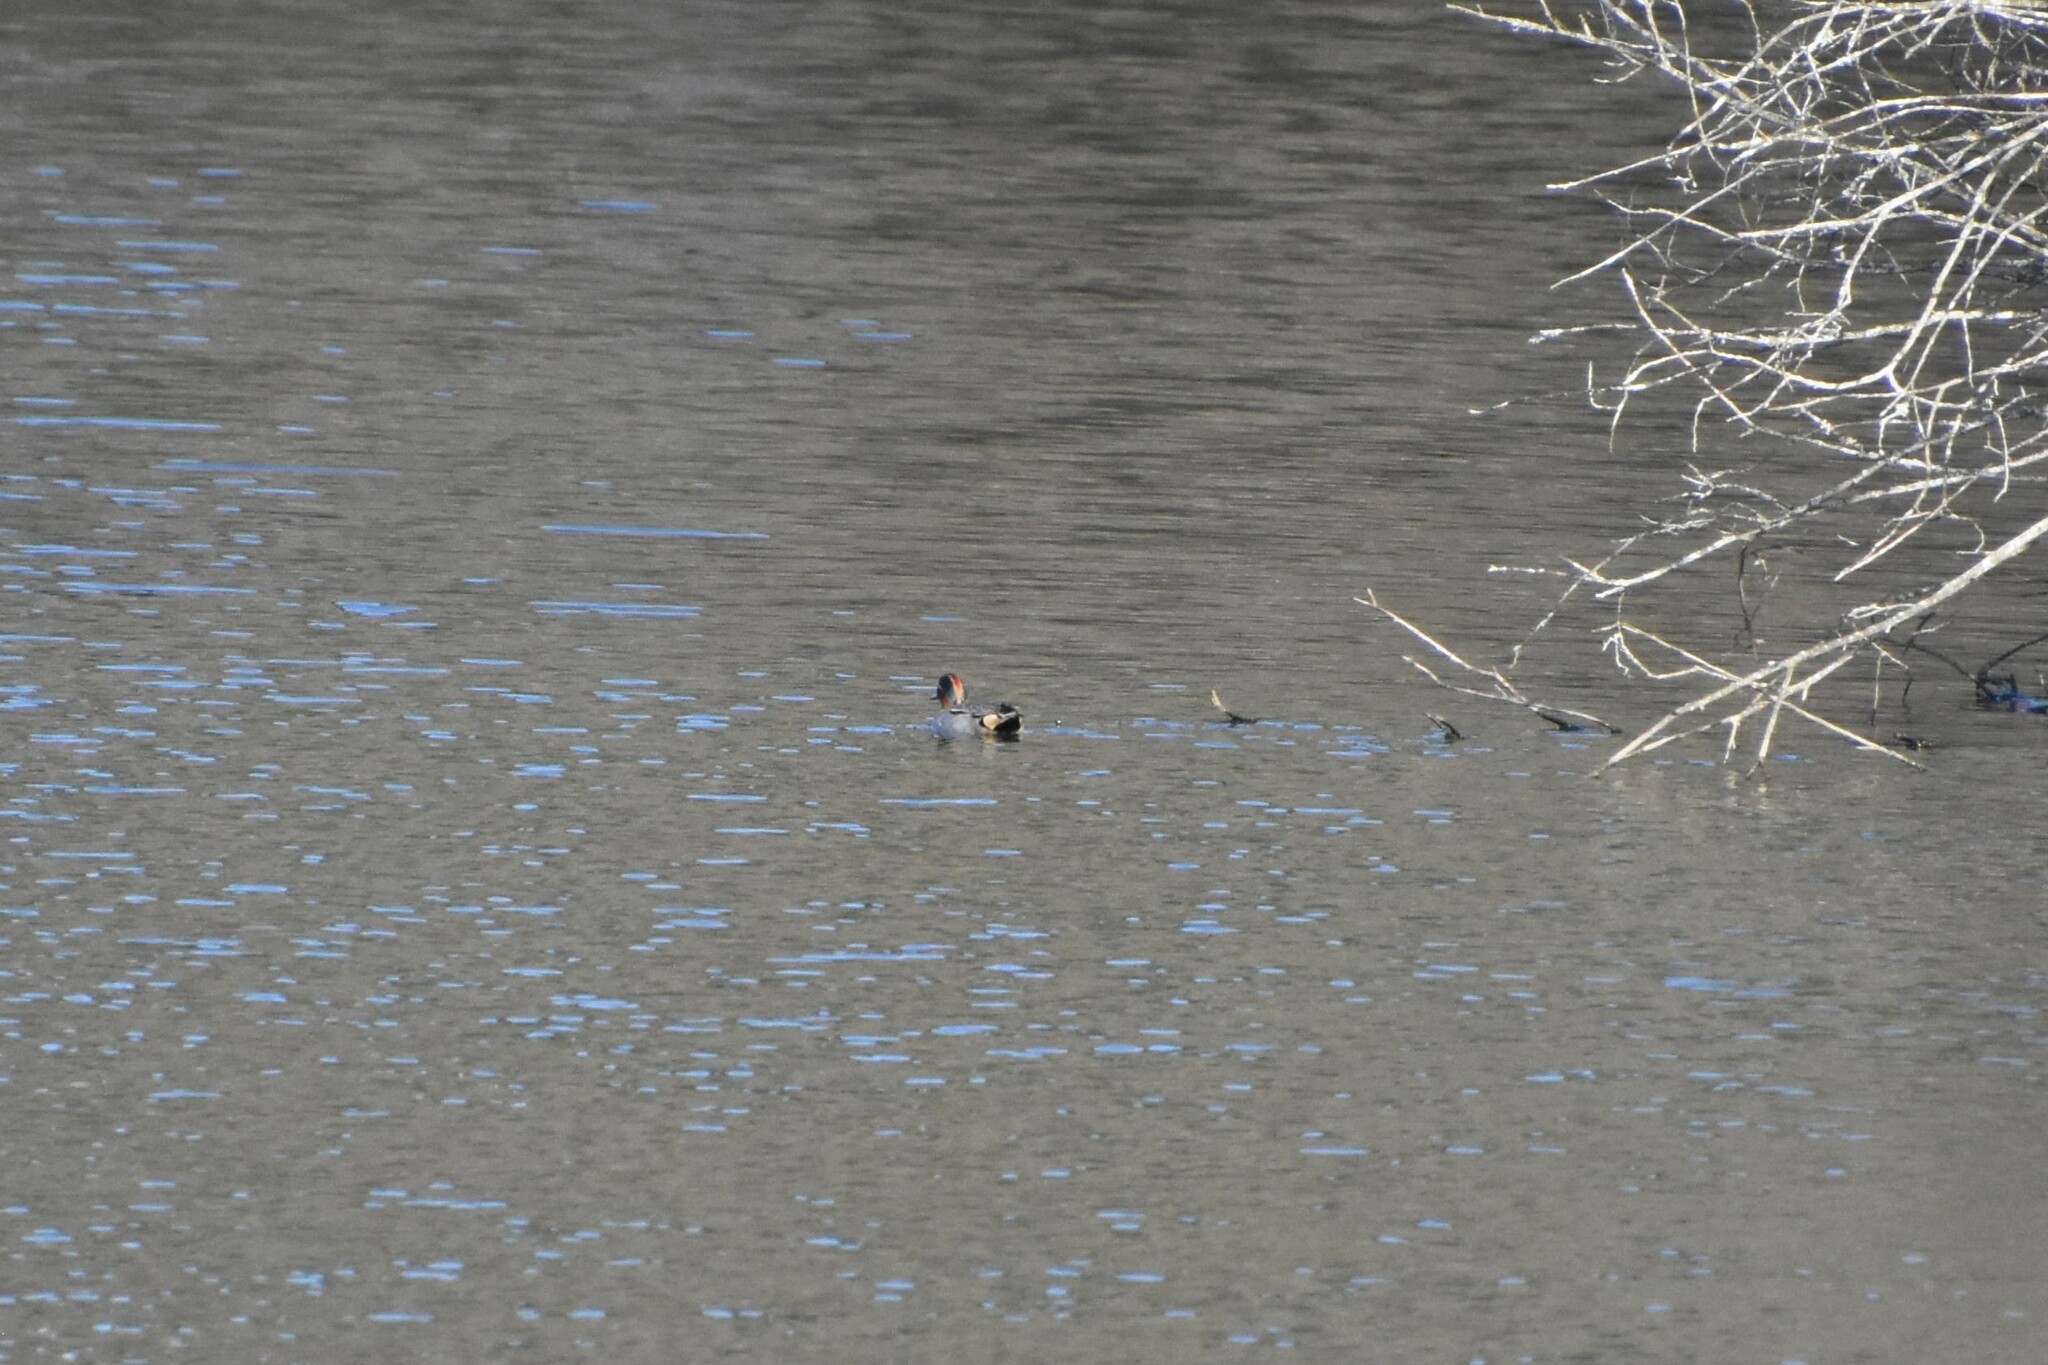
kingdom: Animalia
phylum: Chordata
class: Aves
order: Anseriformes
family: Anatidae
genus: Anas
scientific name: Anas crecca
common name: Eurasian teal
